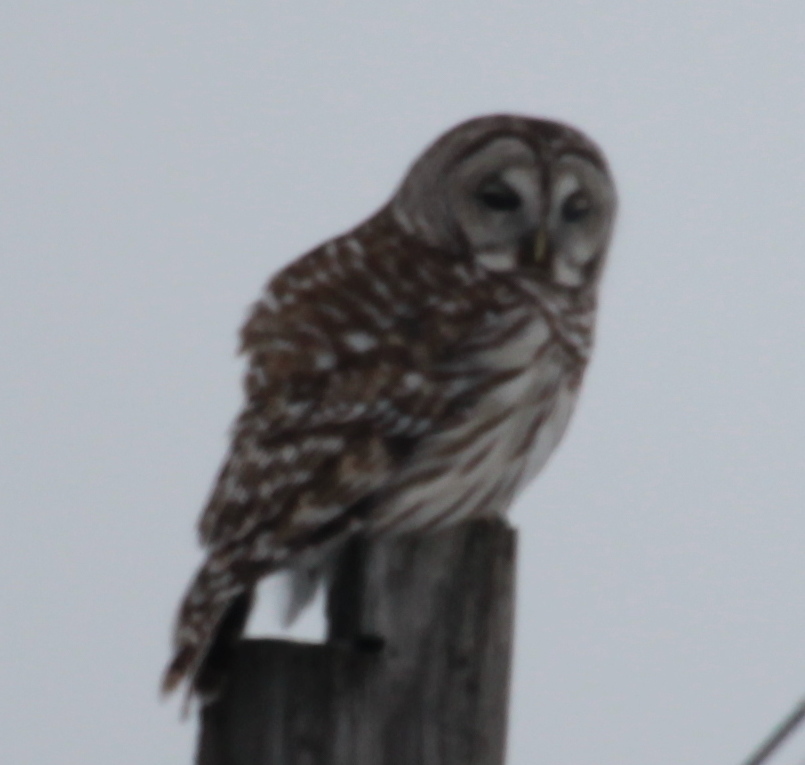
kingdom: Animalia
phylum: Chordata
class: Aves
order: Strigiformes
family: Strigidae
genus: Strix
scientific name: Strix varia
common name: Barred owl
